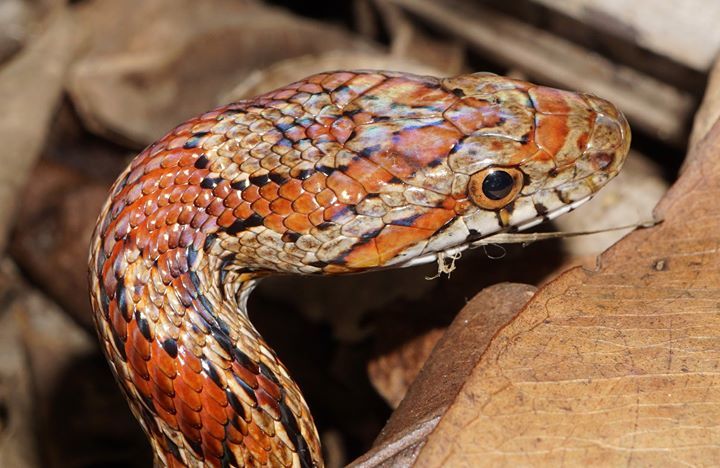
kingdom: Animalia
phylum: Chordata
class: Squamata
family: Colubridae
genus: Pantherophis
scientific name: Pantherophis guttatus
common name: Red cornsnake
